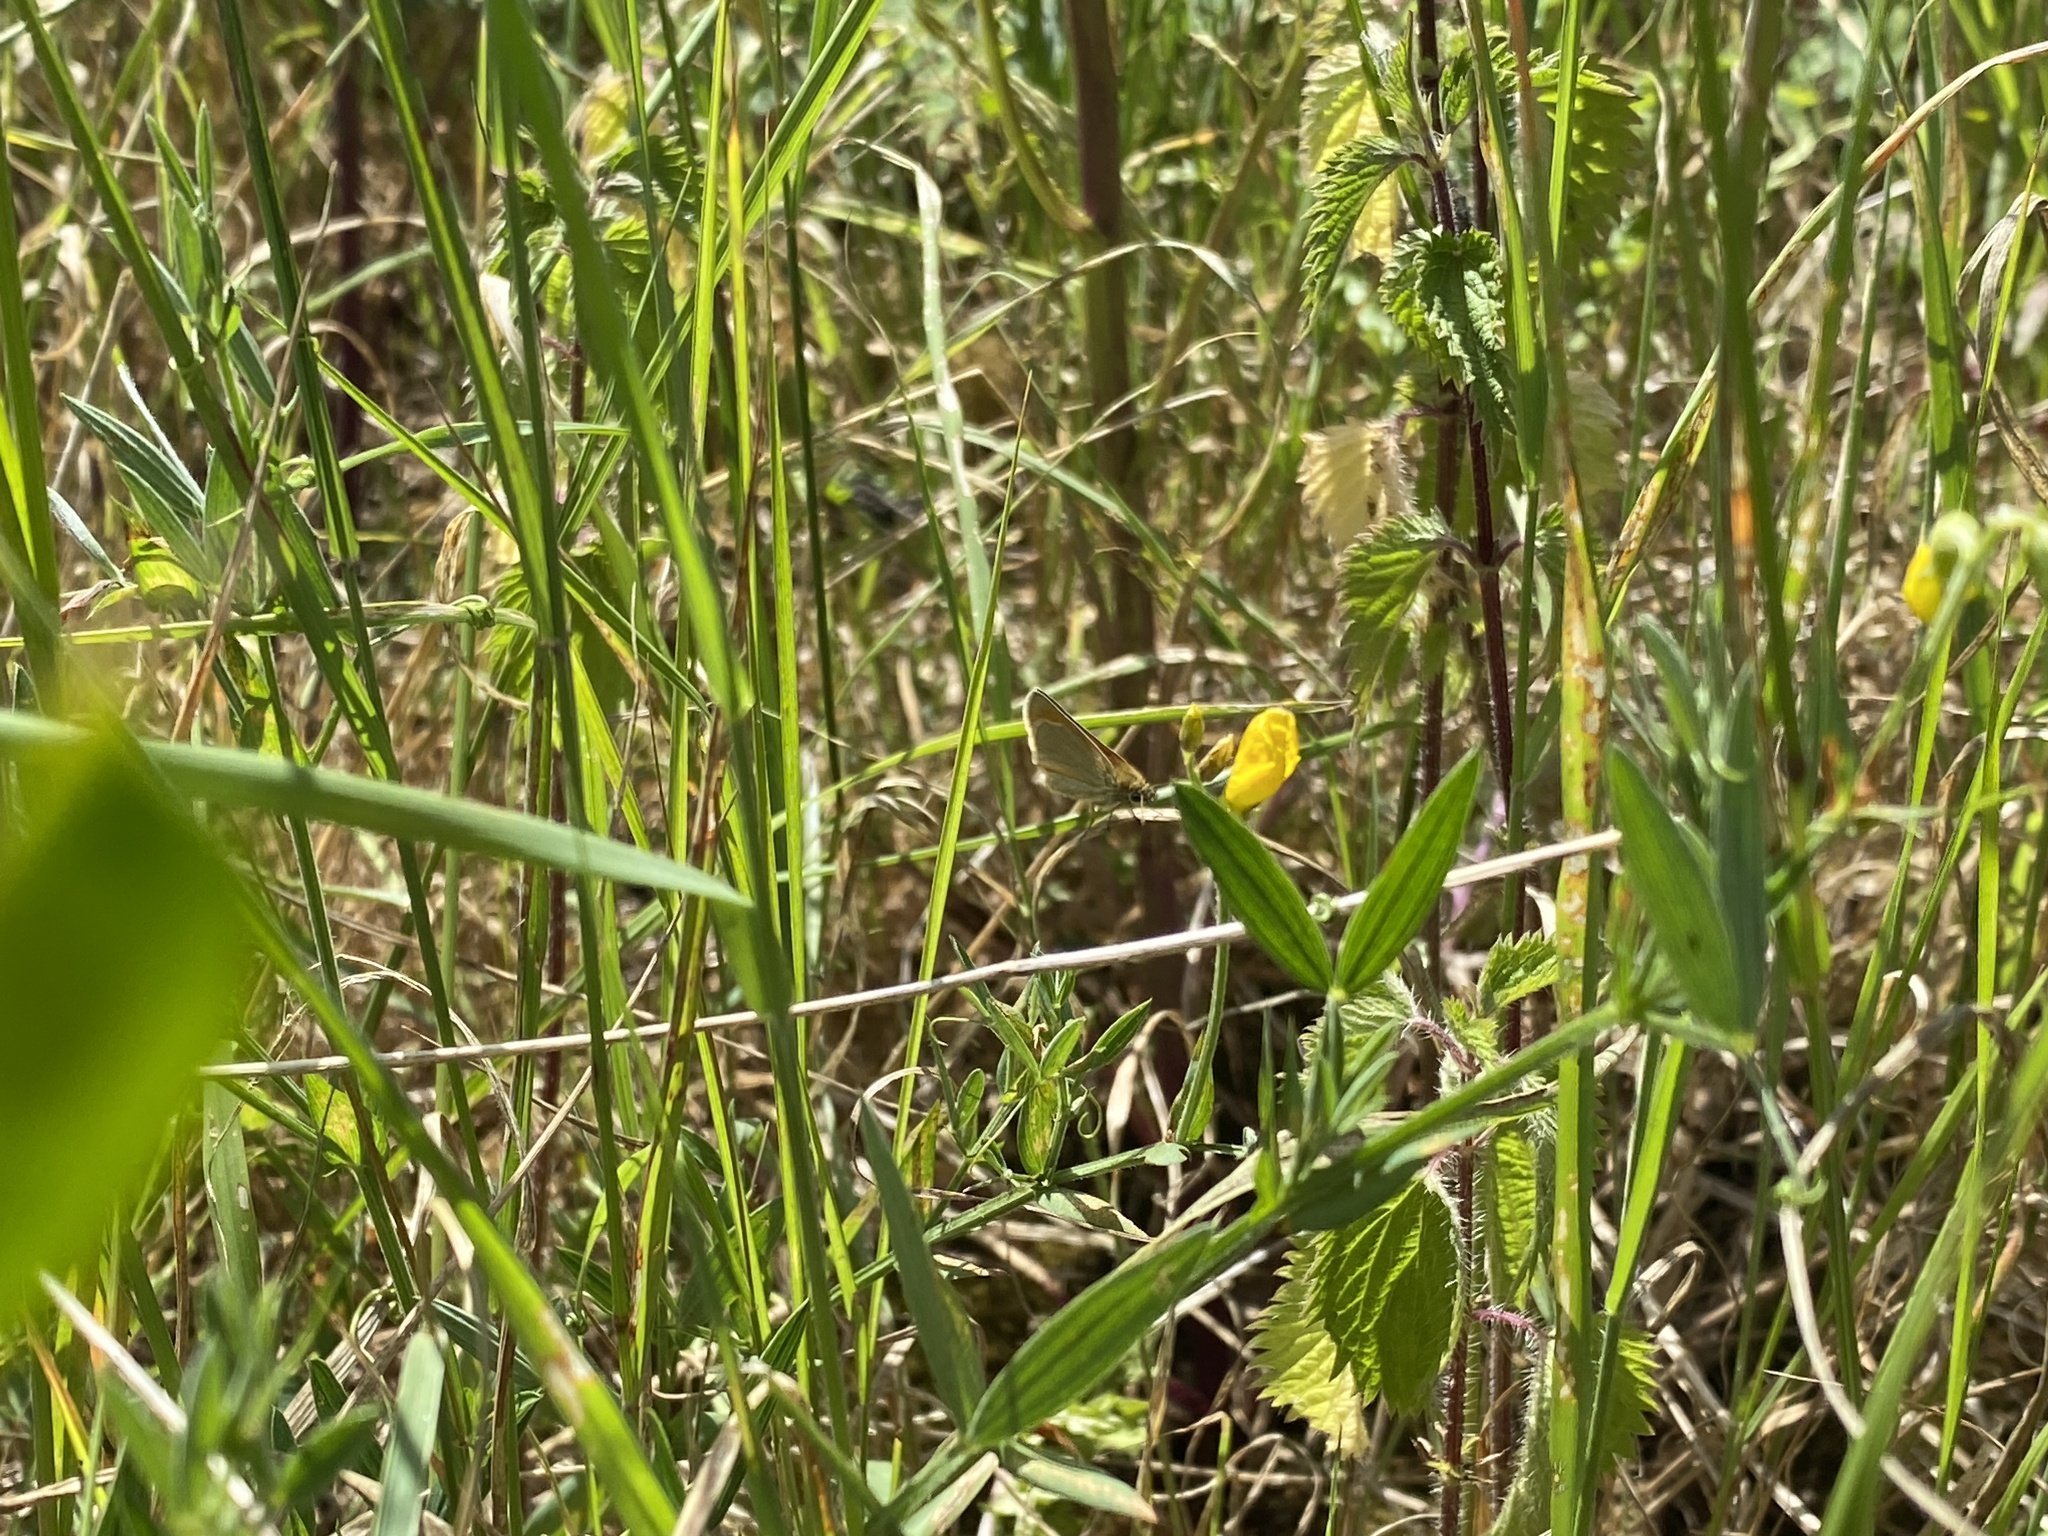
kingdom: Animalia
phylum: Arthropoda
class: Insecta
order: Lepidoptera
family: Hesperiidae
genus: Thymelicus
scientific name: Thymelicus lineola
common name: Essex skipper
